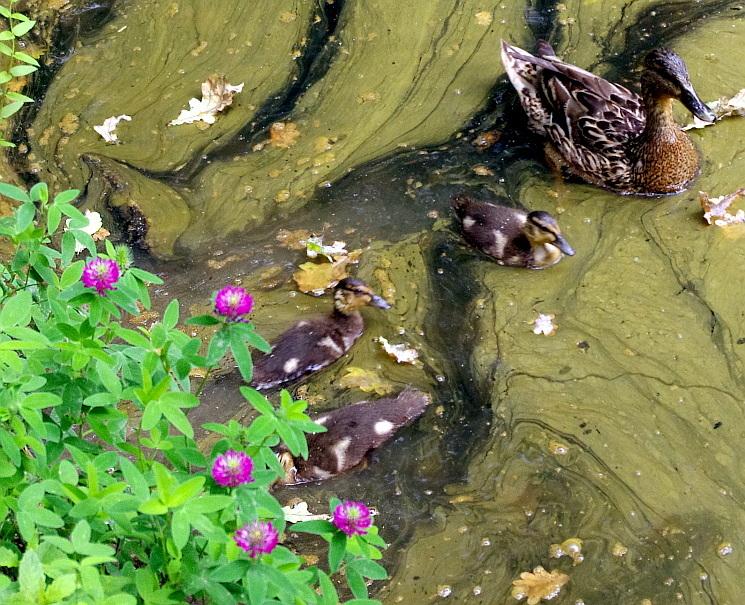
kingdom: Animalia
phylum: Chordata
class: Aves
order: Anseriformes
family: Anatidae
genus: Anas
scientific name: Anas platyrhynchos
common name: Mallard
